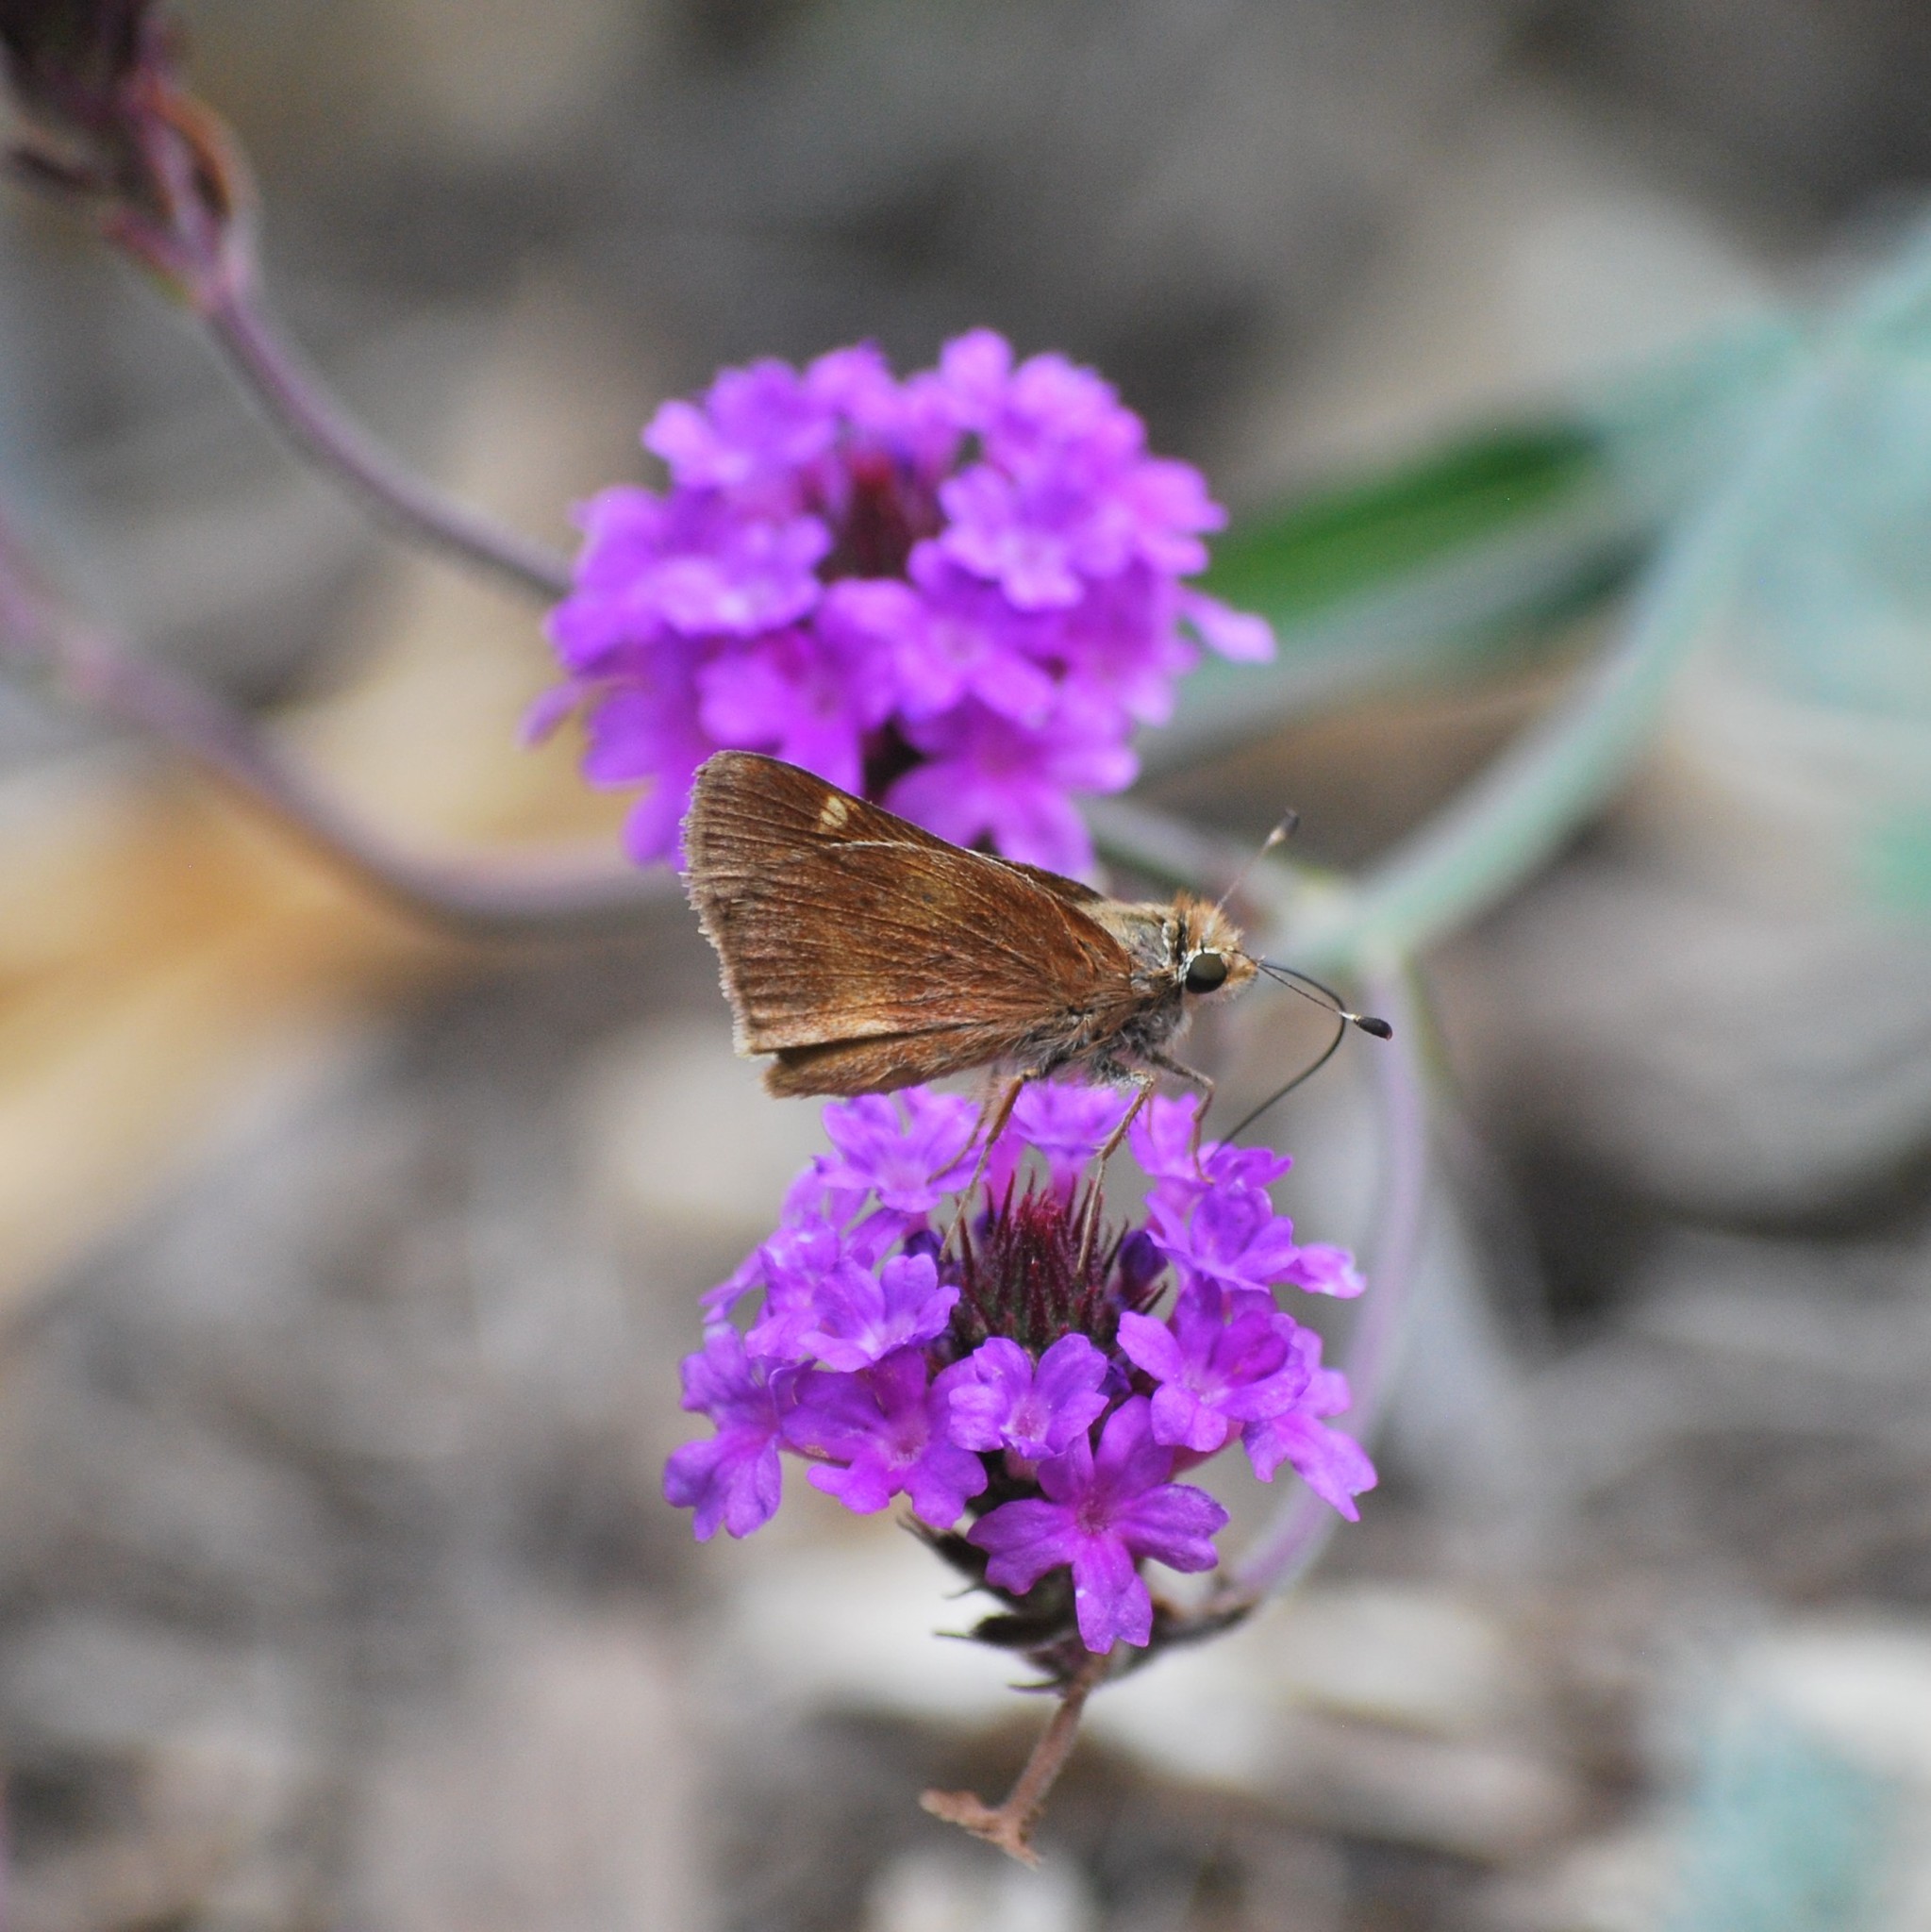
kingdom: Animalia
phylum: Arthropoda
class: Insecta
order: Lepidoptera
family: Hesperiidae
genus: Lon
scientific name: Lon melane
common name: Umber skipper
